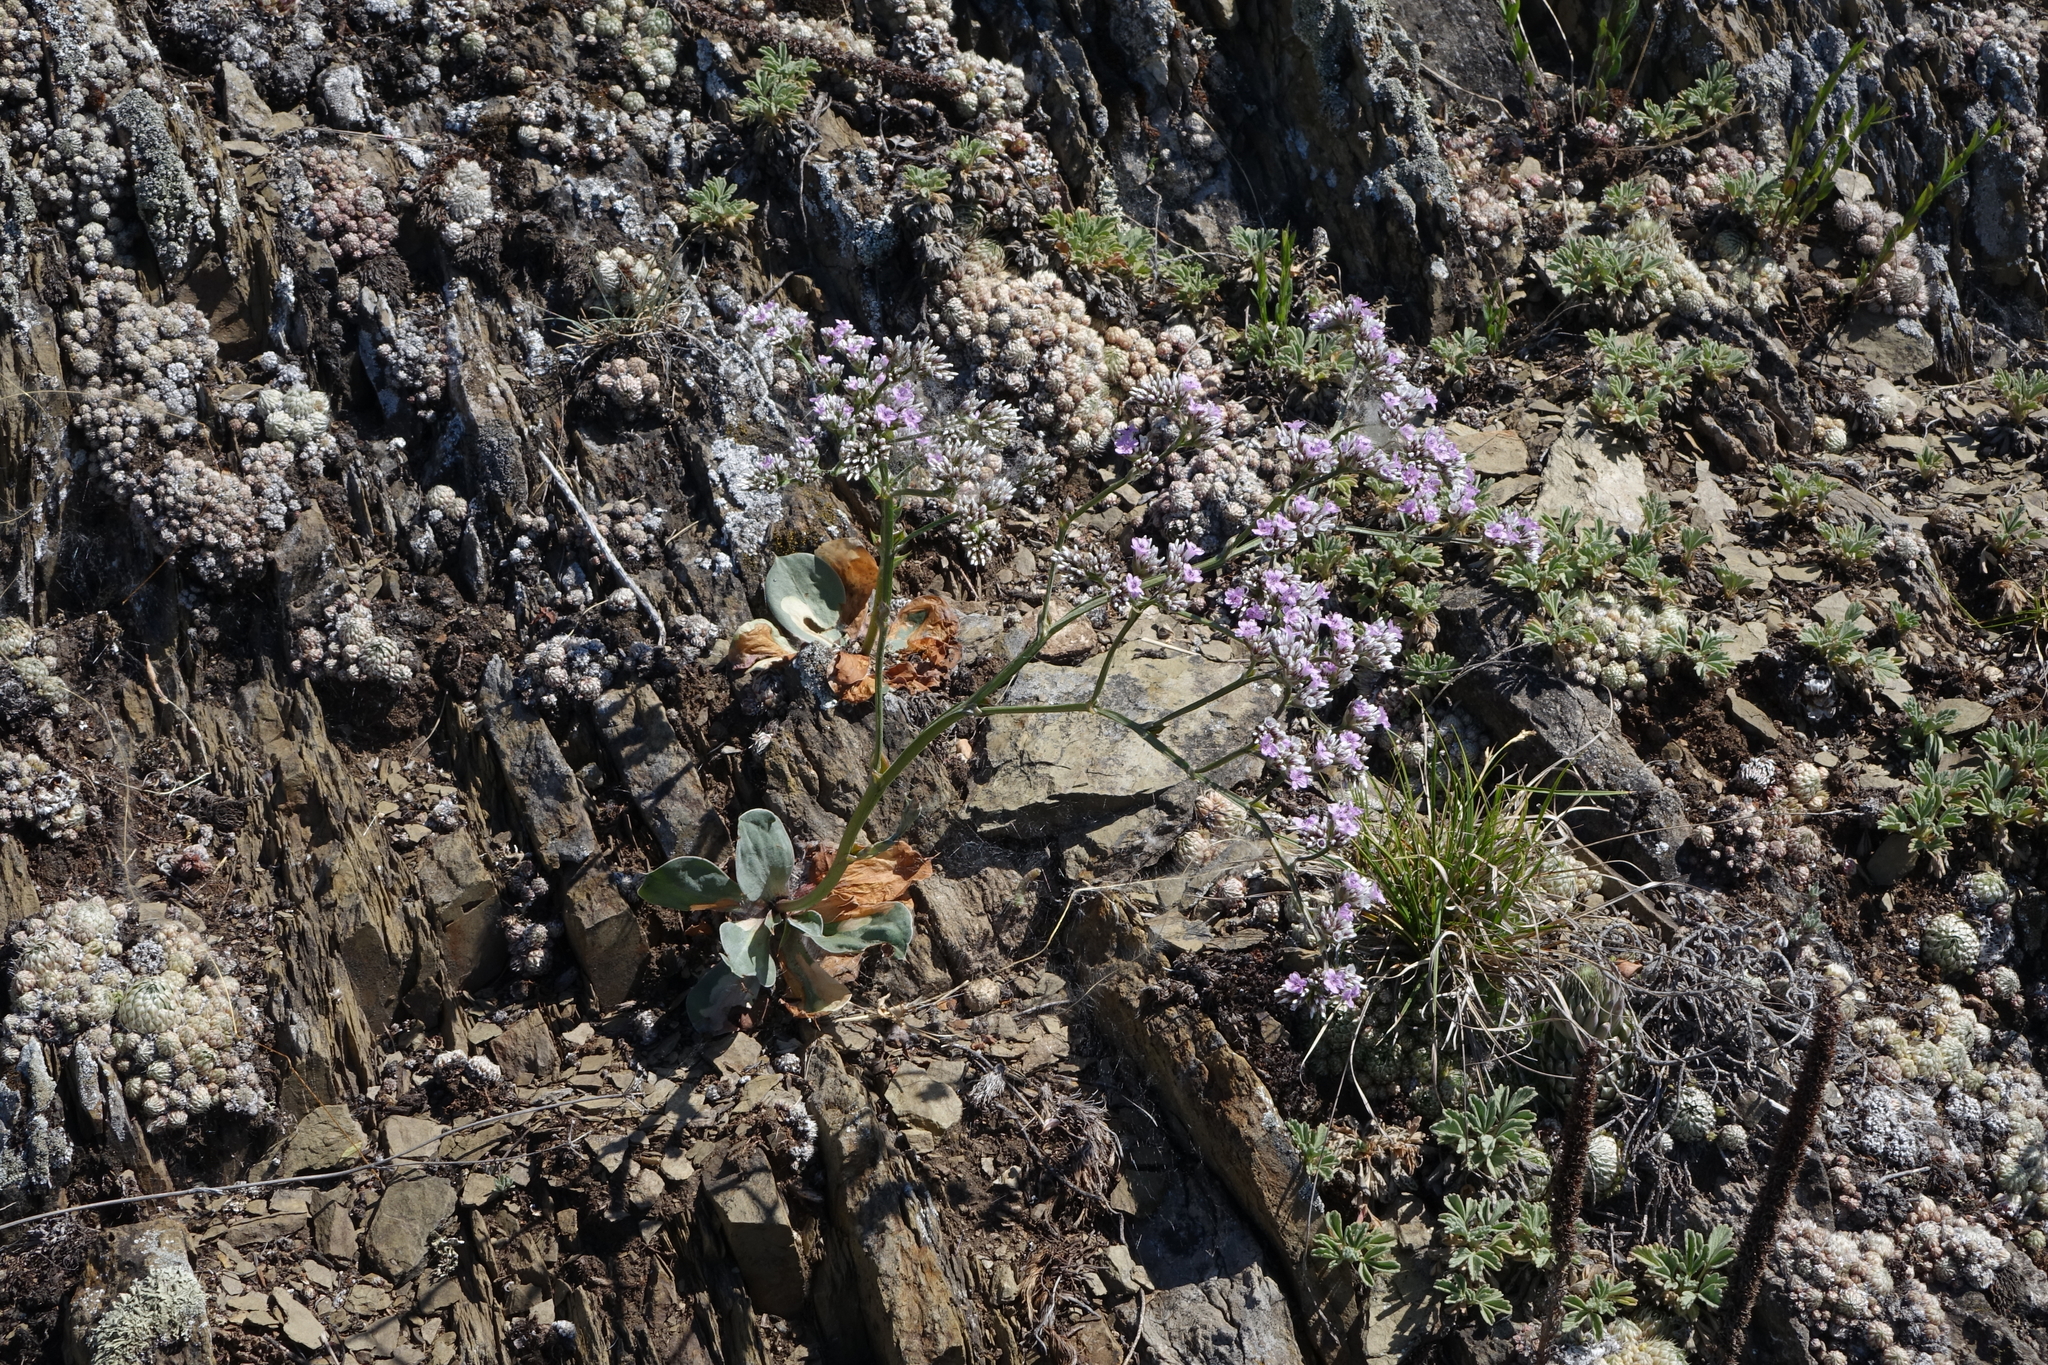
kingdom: Plantae
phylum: Tracheophyta
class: Magnoliopsida
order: Caryophyllales
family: Plumbaginaceae
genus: Goniolimon
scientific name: Goniolimon speciosum
